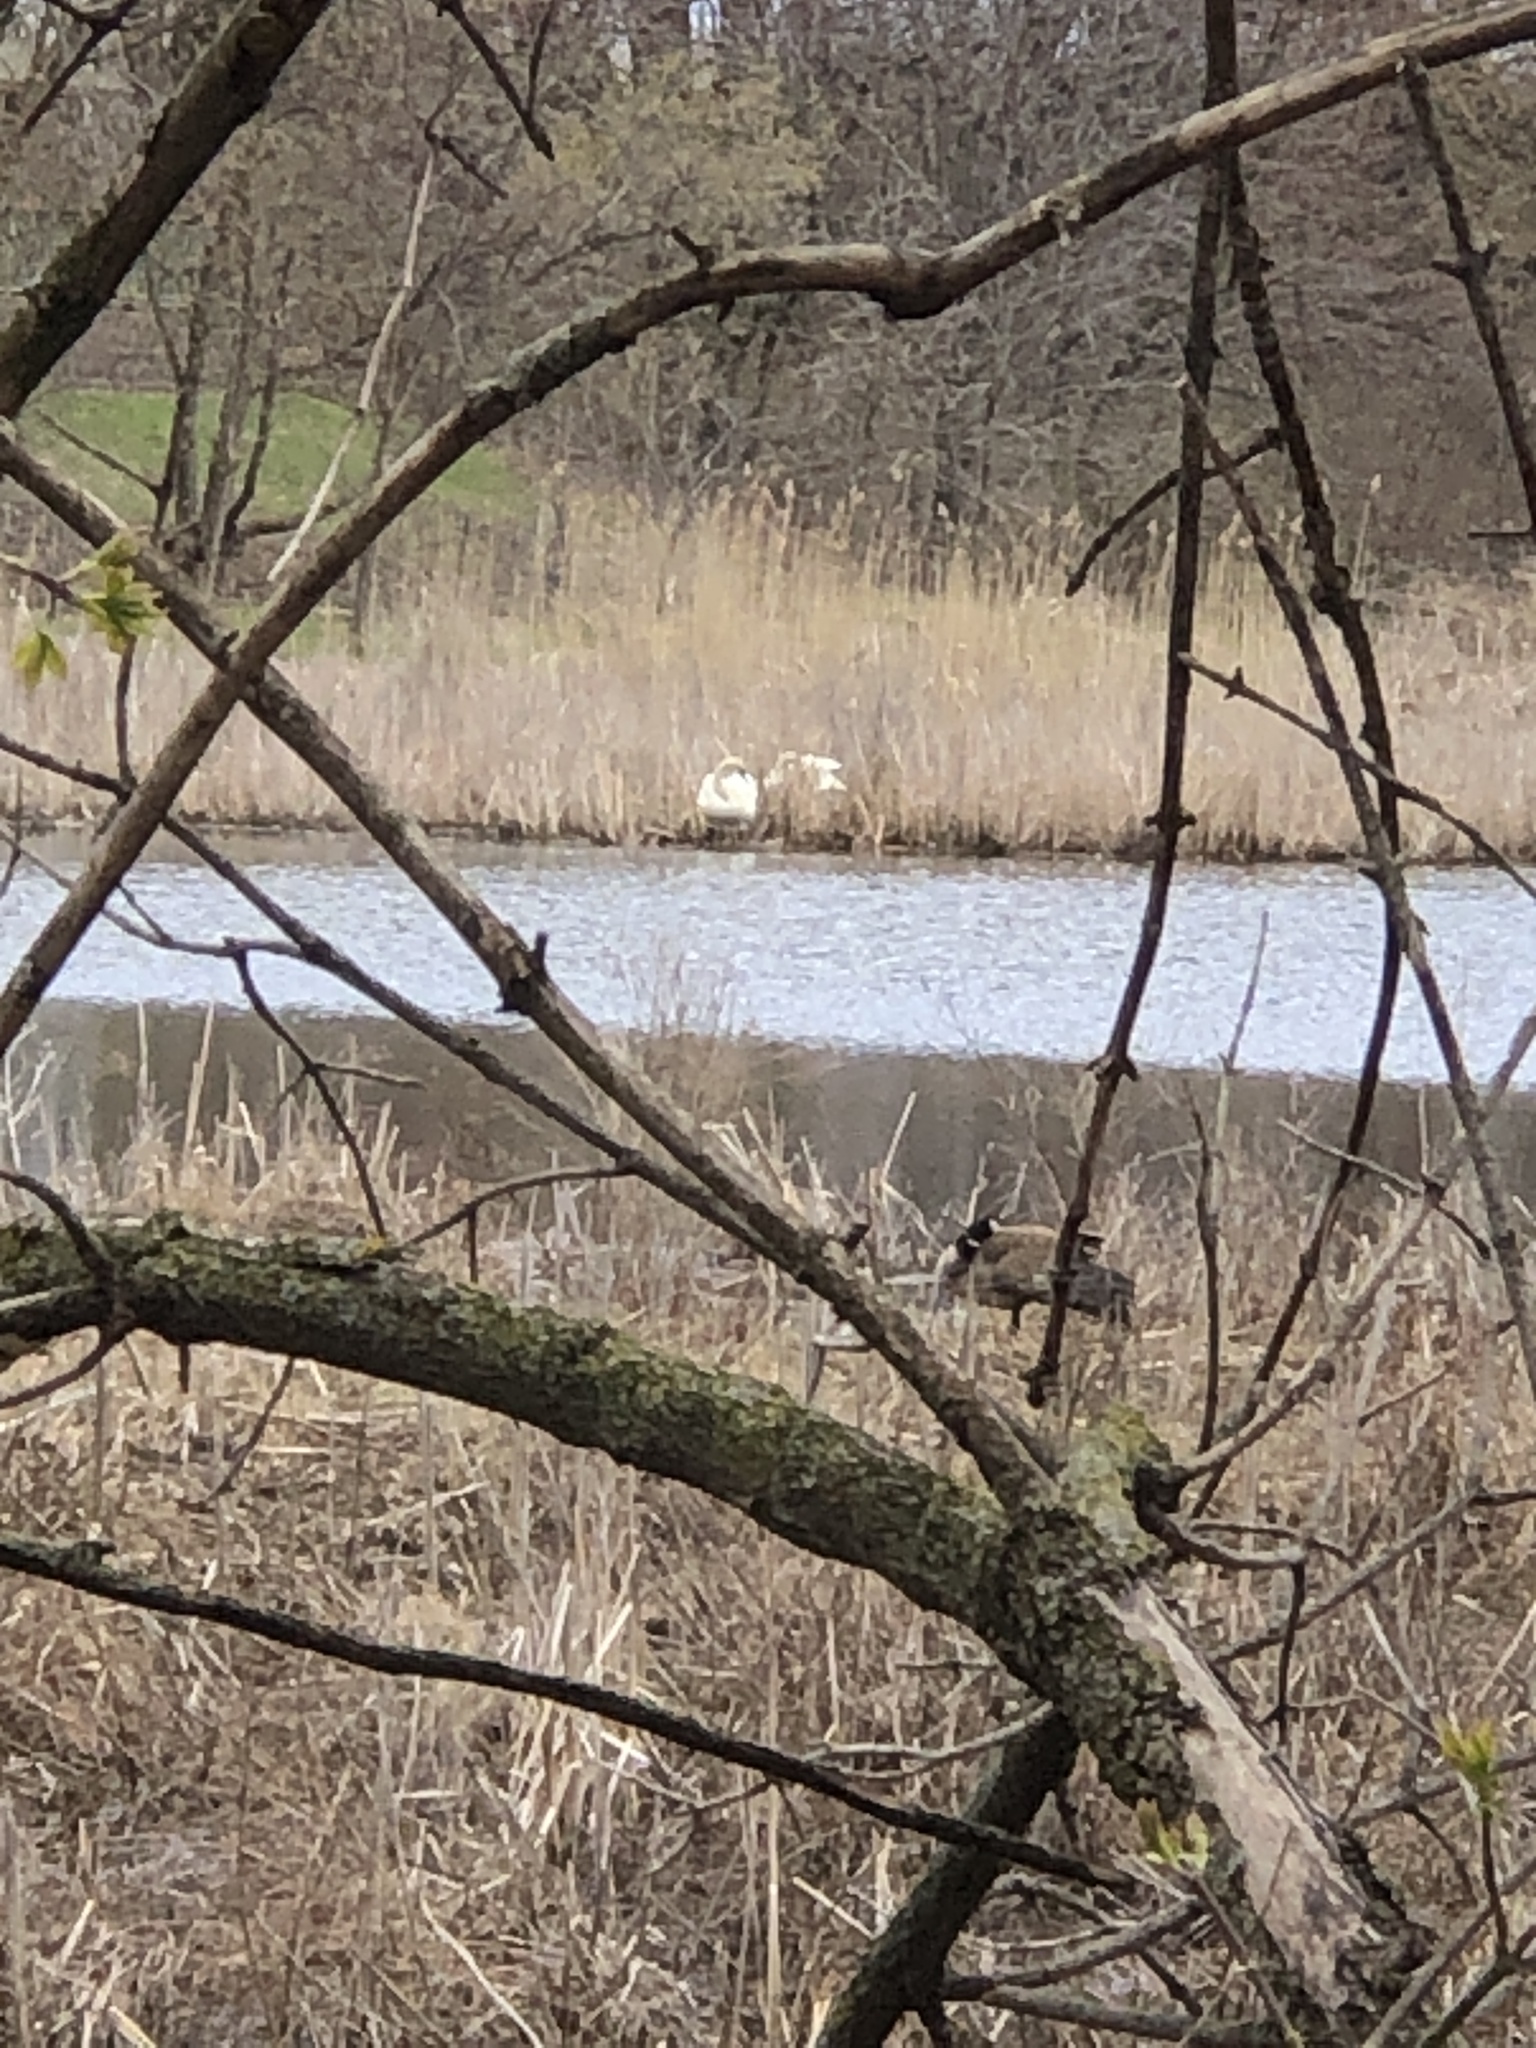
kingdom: Animalia
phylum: Chordata
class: Aves
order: Anseriformes
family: Anatidae
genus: Cygnus
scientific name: Cygnus buccinator
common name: Trumpeter swan
